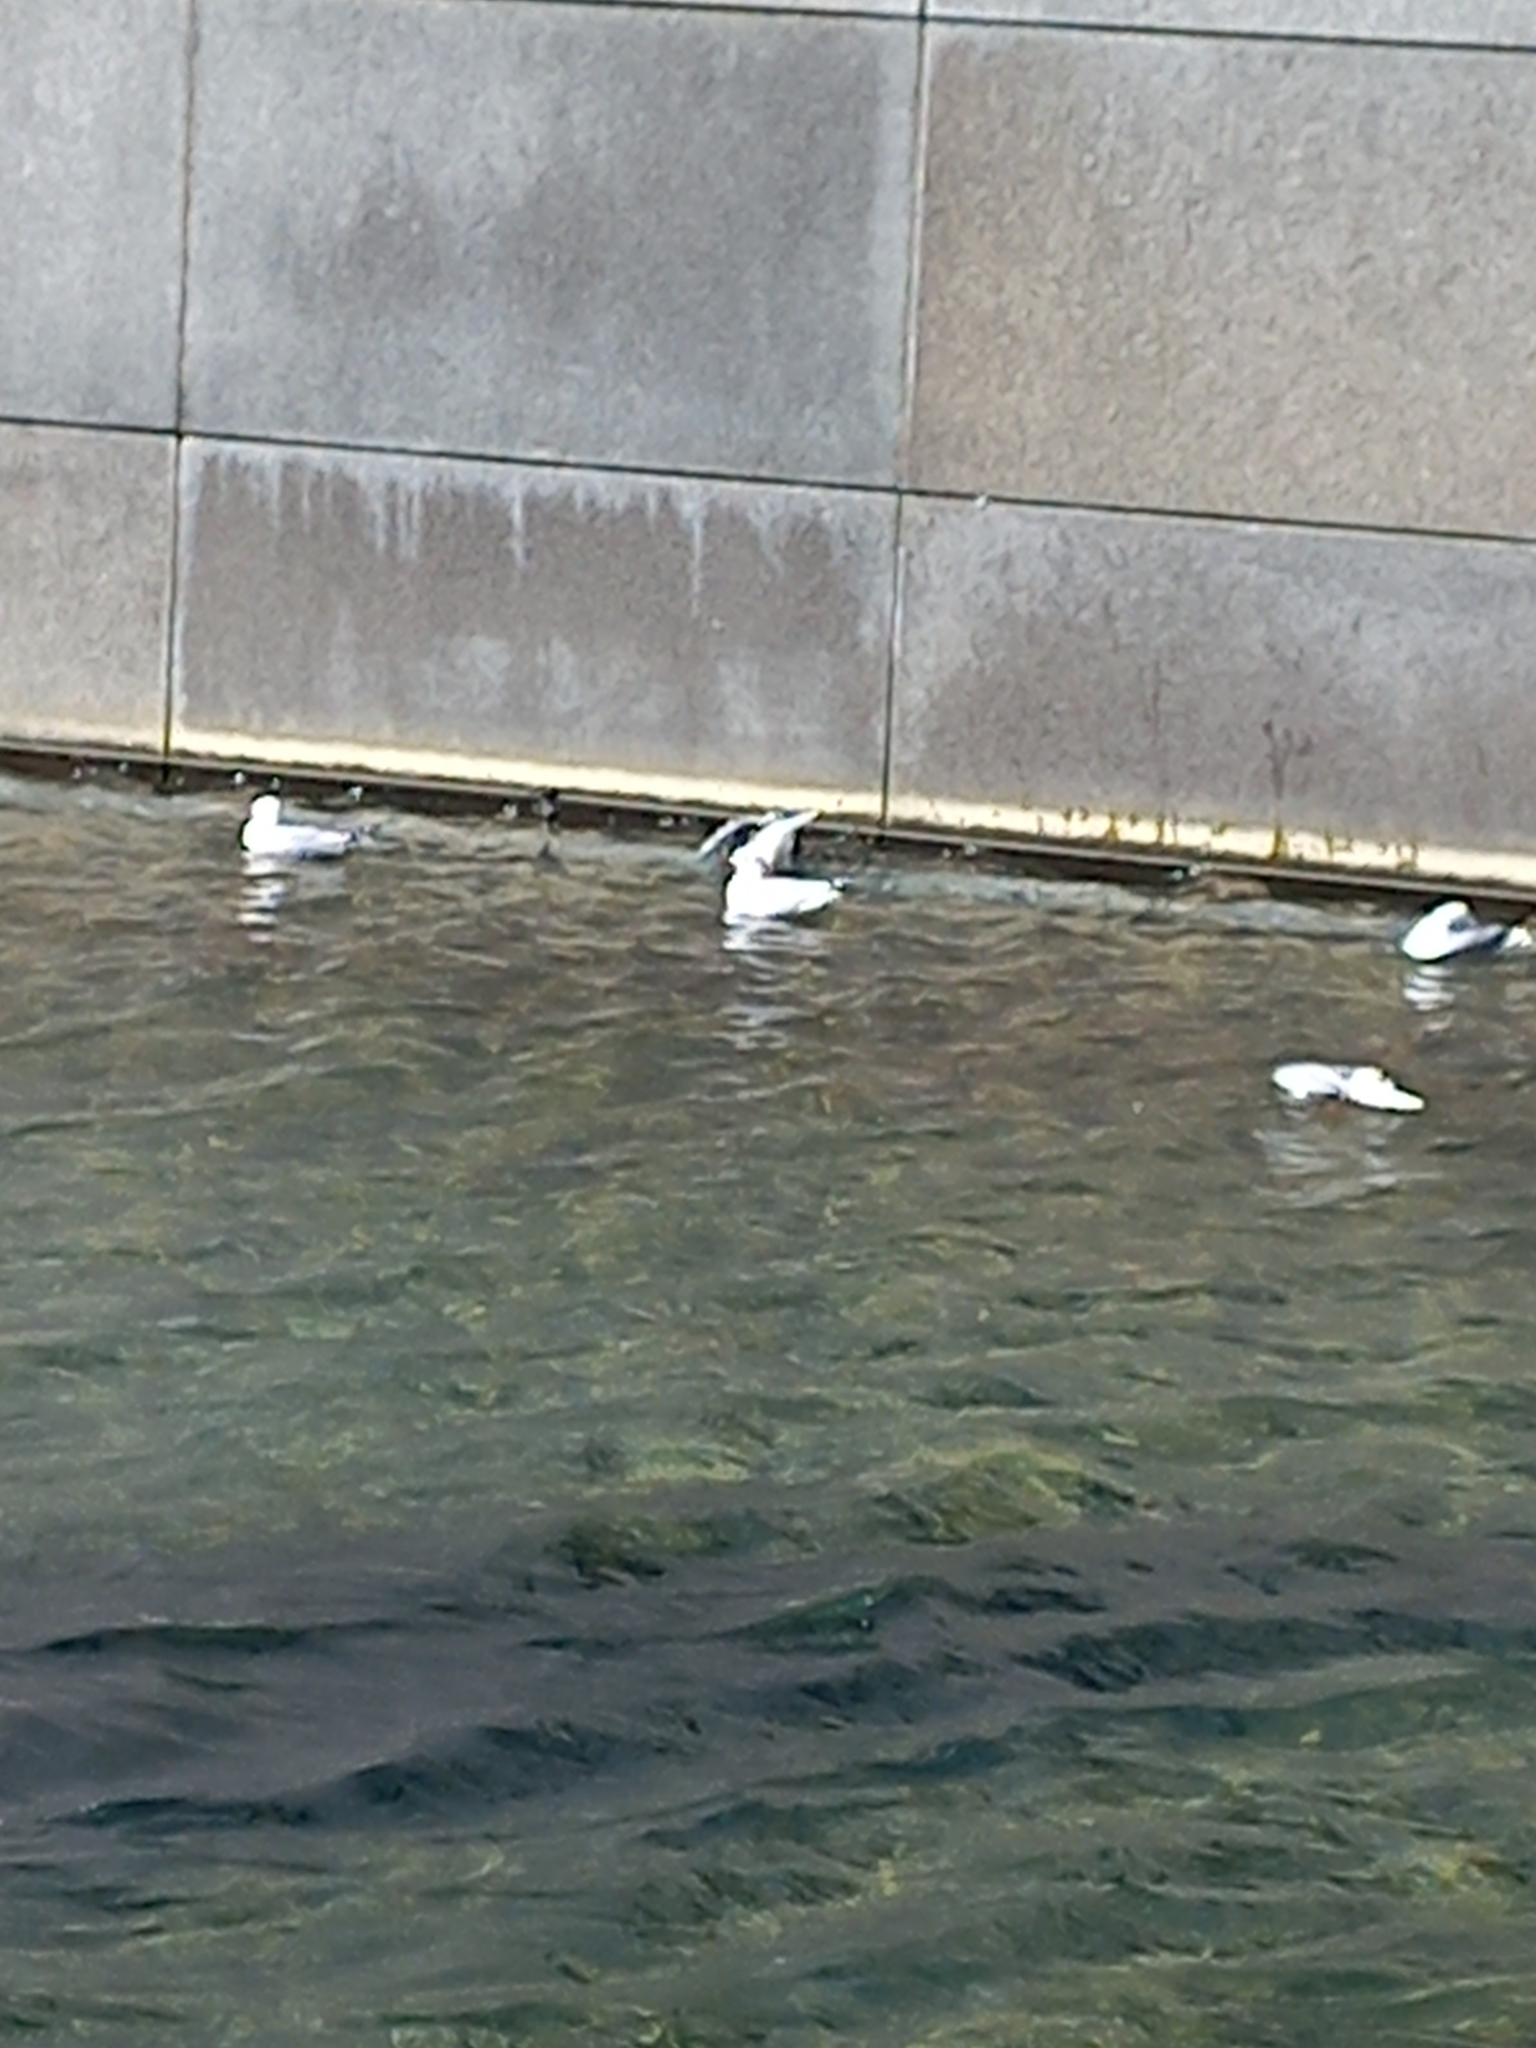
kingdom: Animalia
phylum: Chordata
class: Aves
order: Charadriiformes
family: Laridae
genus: Chroicocephalus
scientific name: Chroicocephalus novaehollandiae
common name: Silver gull
